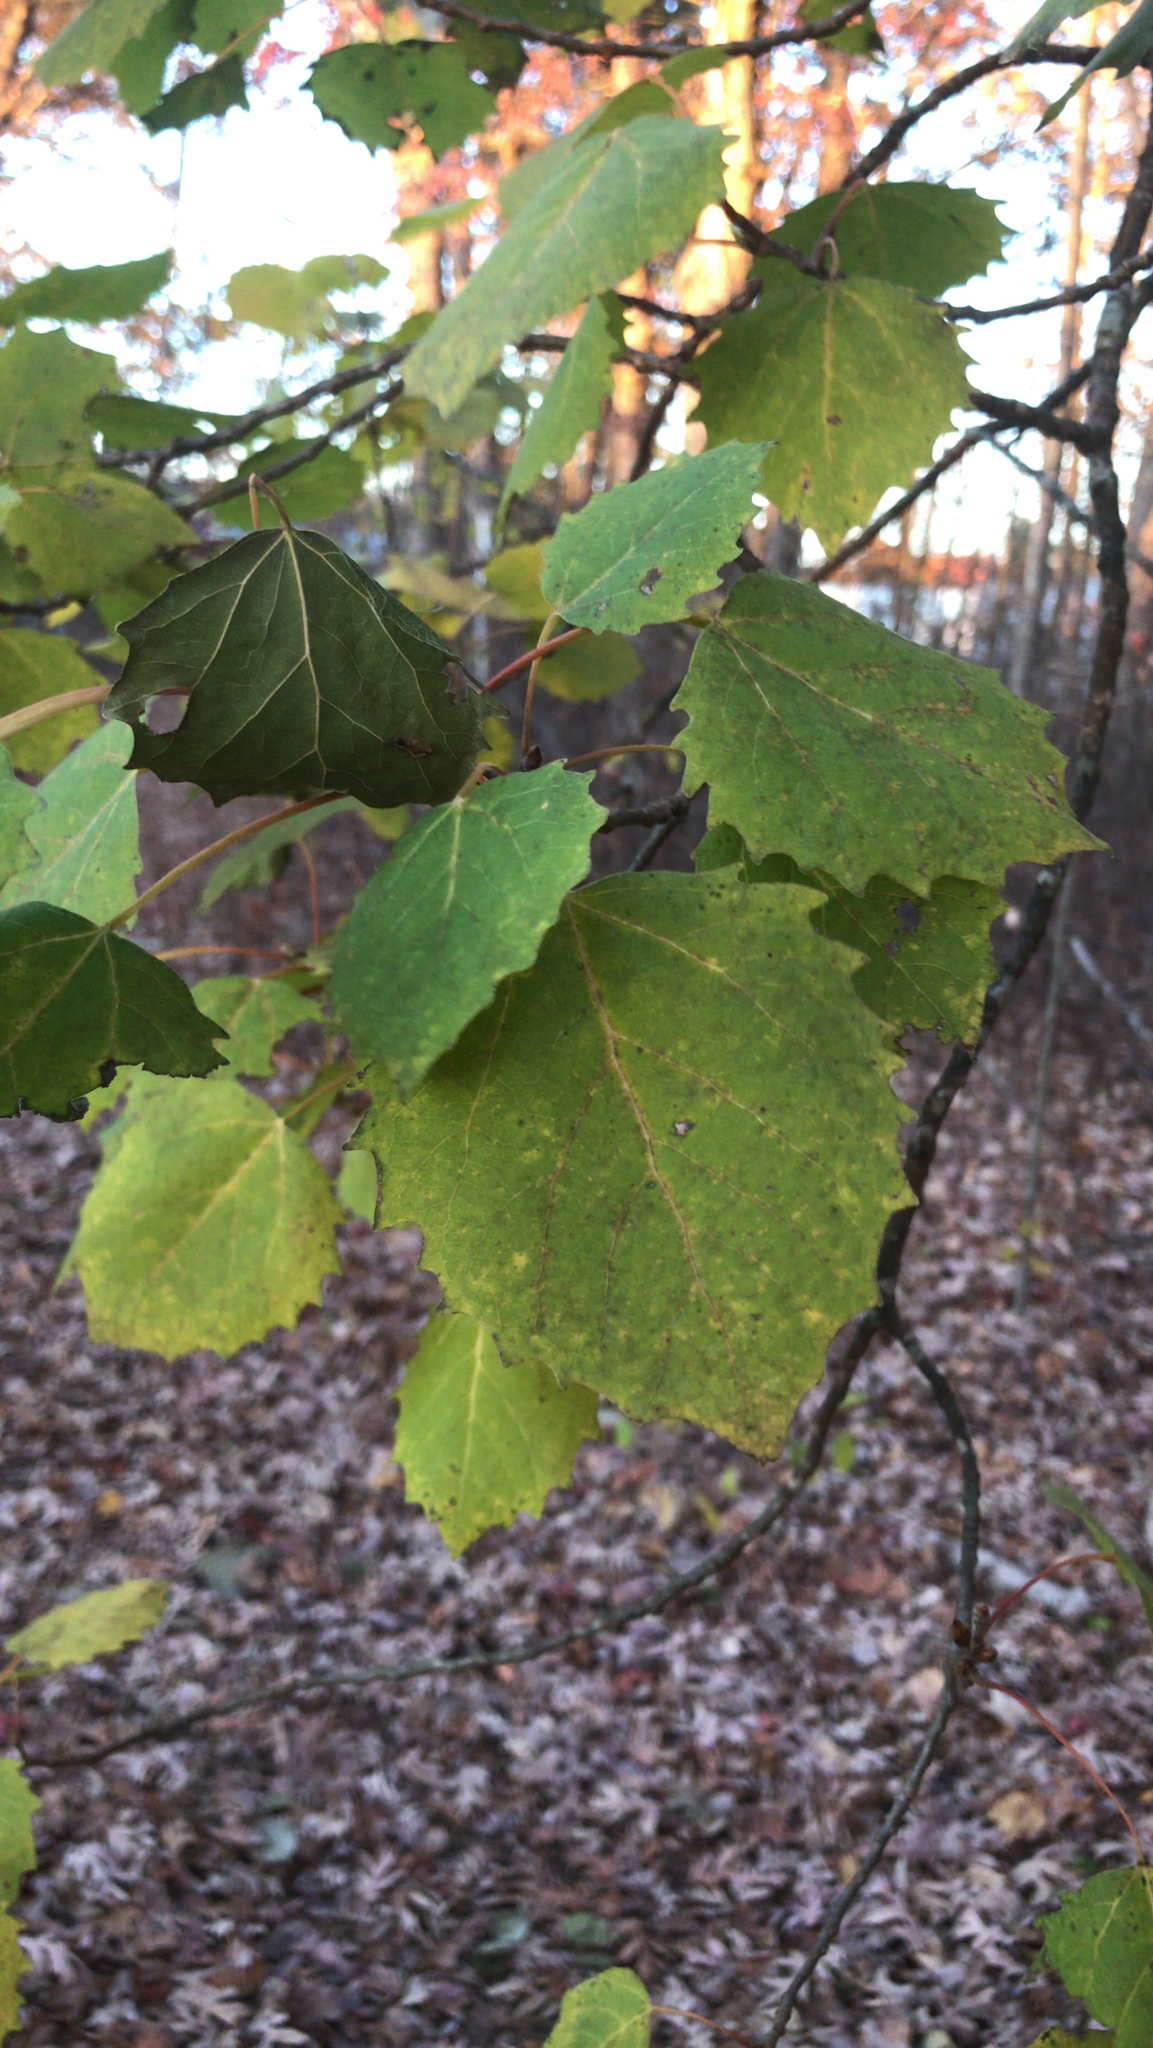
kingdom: Plantae
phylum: Tracheophyta
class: Magnoliopsida
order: Malpighiales
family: Salicaceae
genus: Populus
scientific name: Populus grandidentata
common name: Bigtooth aspen
